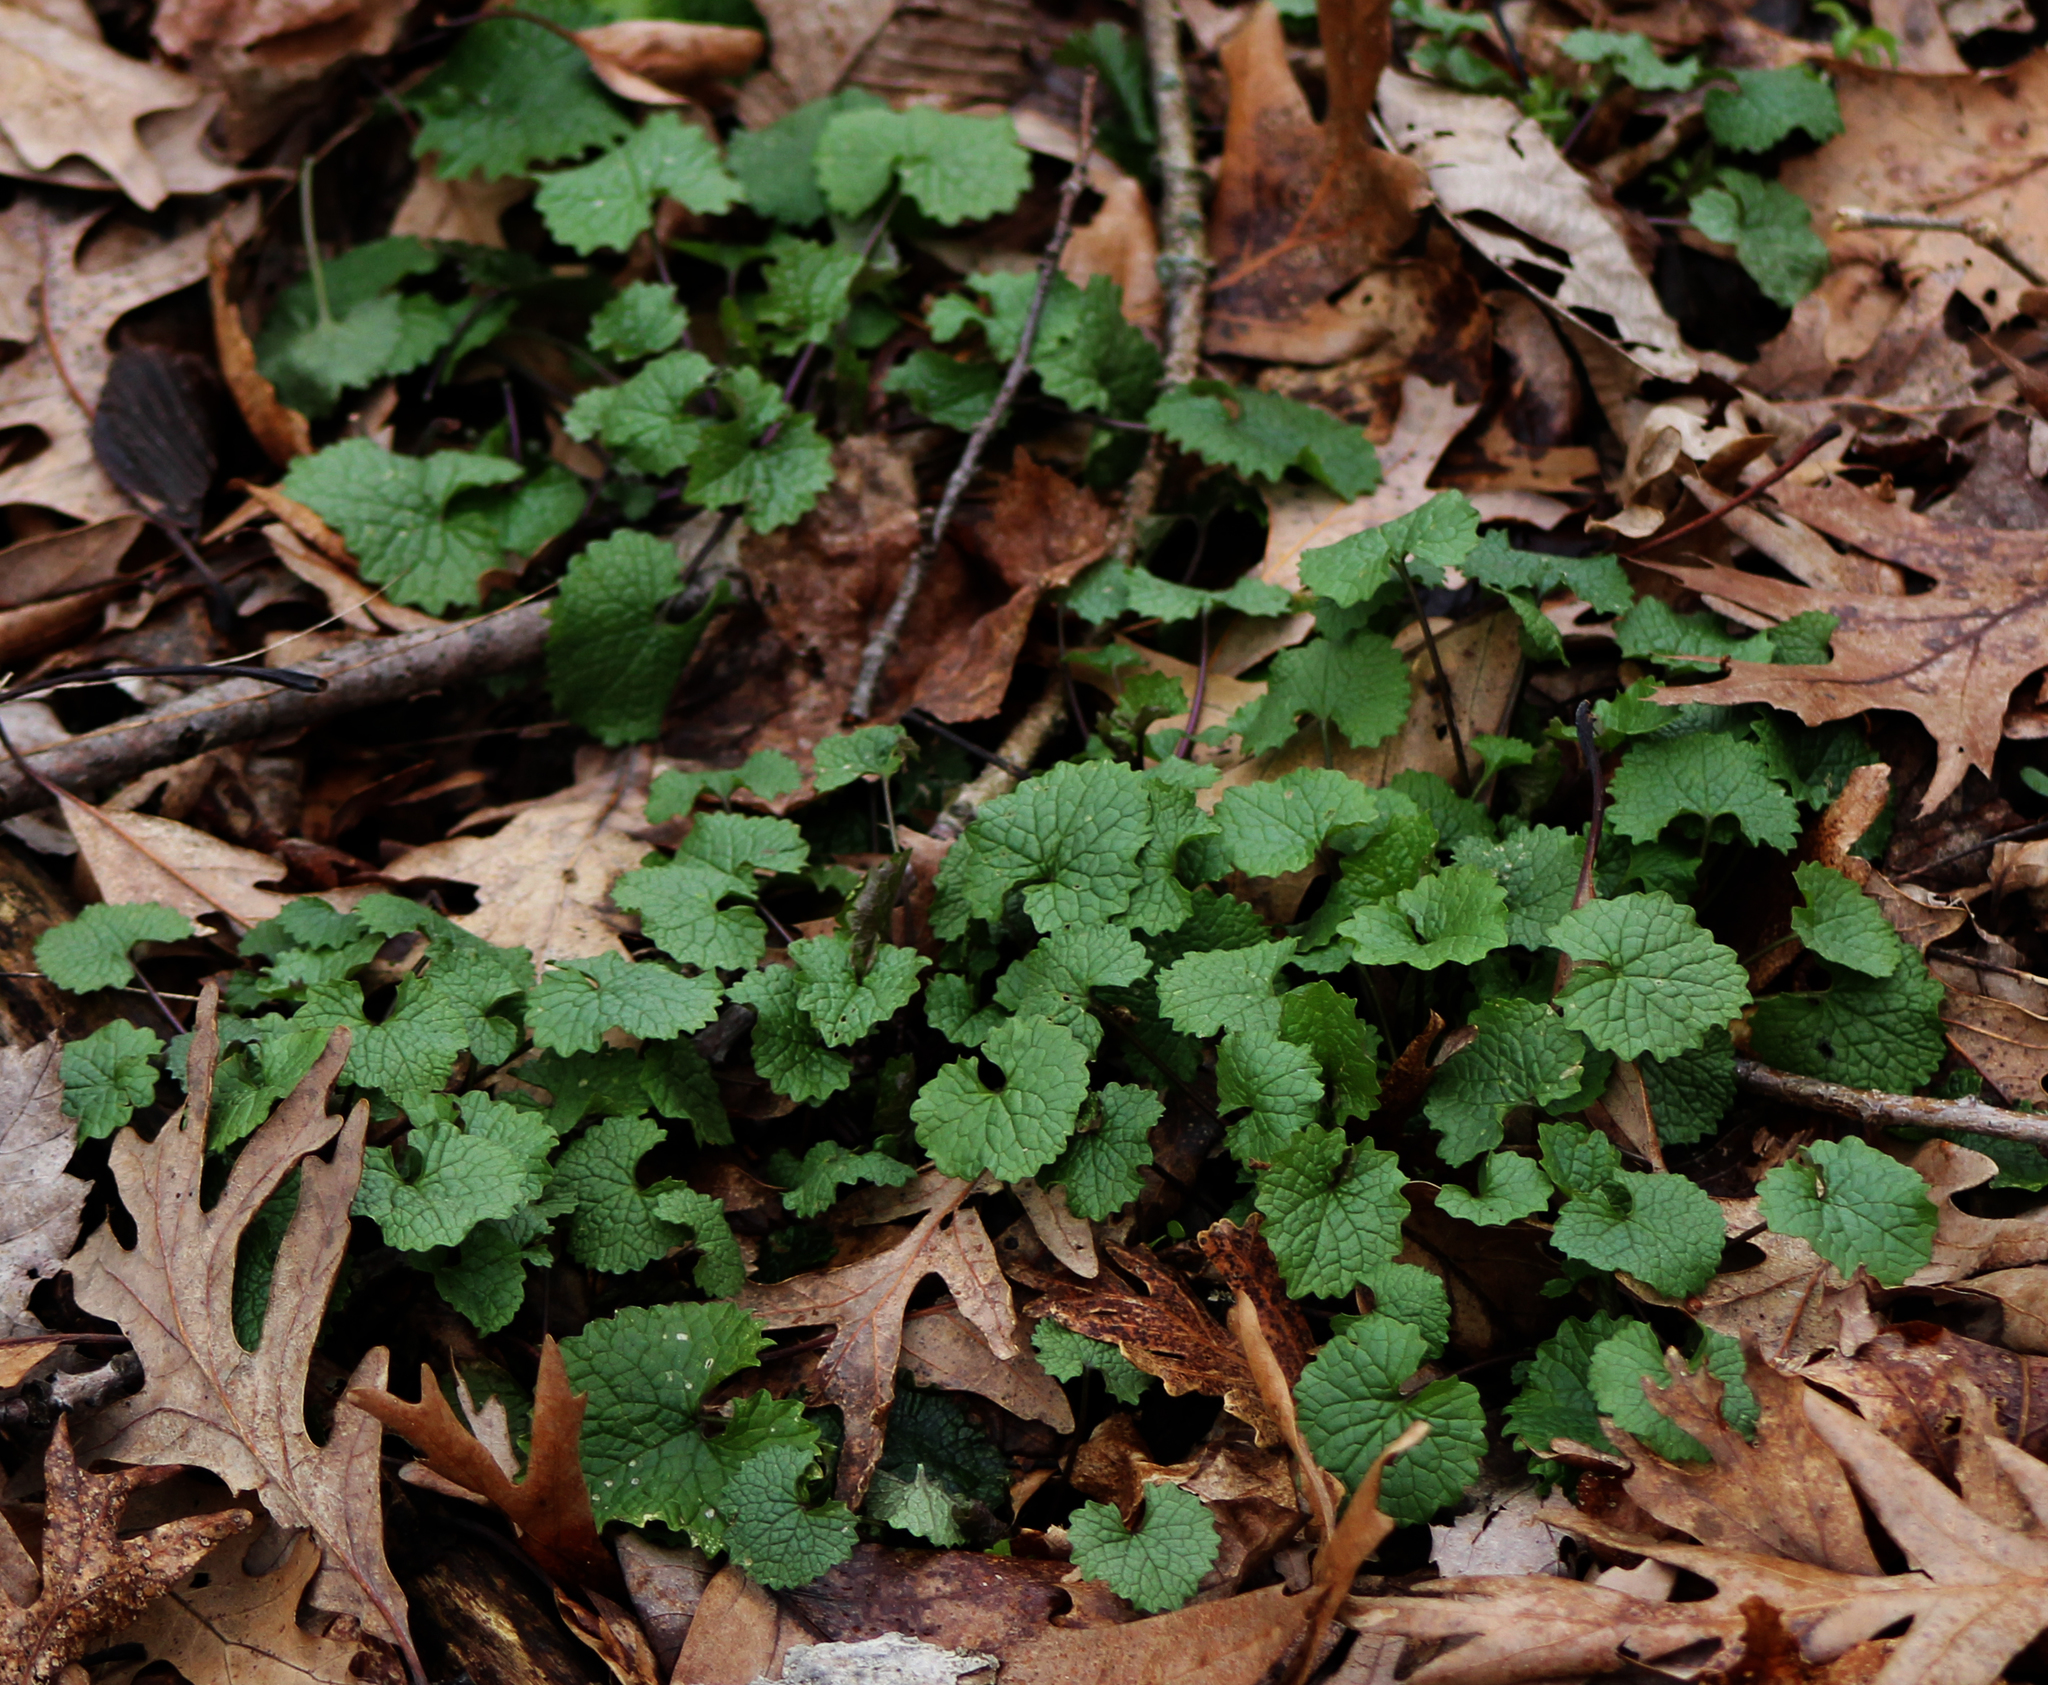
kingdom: Plantae
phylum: Tracheophyta
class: Magnoliopsida
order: Brassicales
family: Brassicaceae
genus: Alliaria
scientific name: Alliaria petiolata
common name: Garlic mustard
